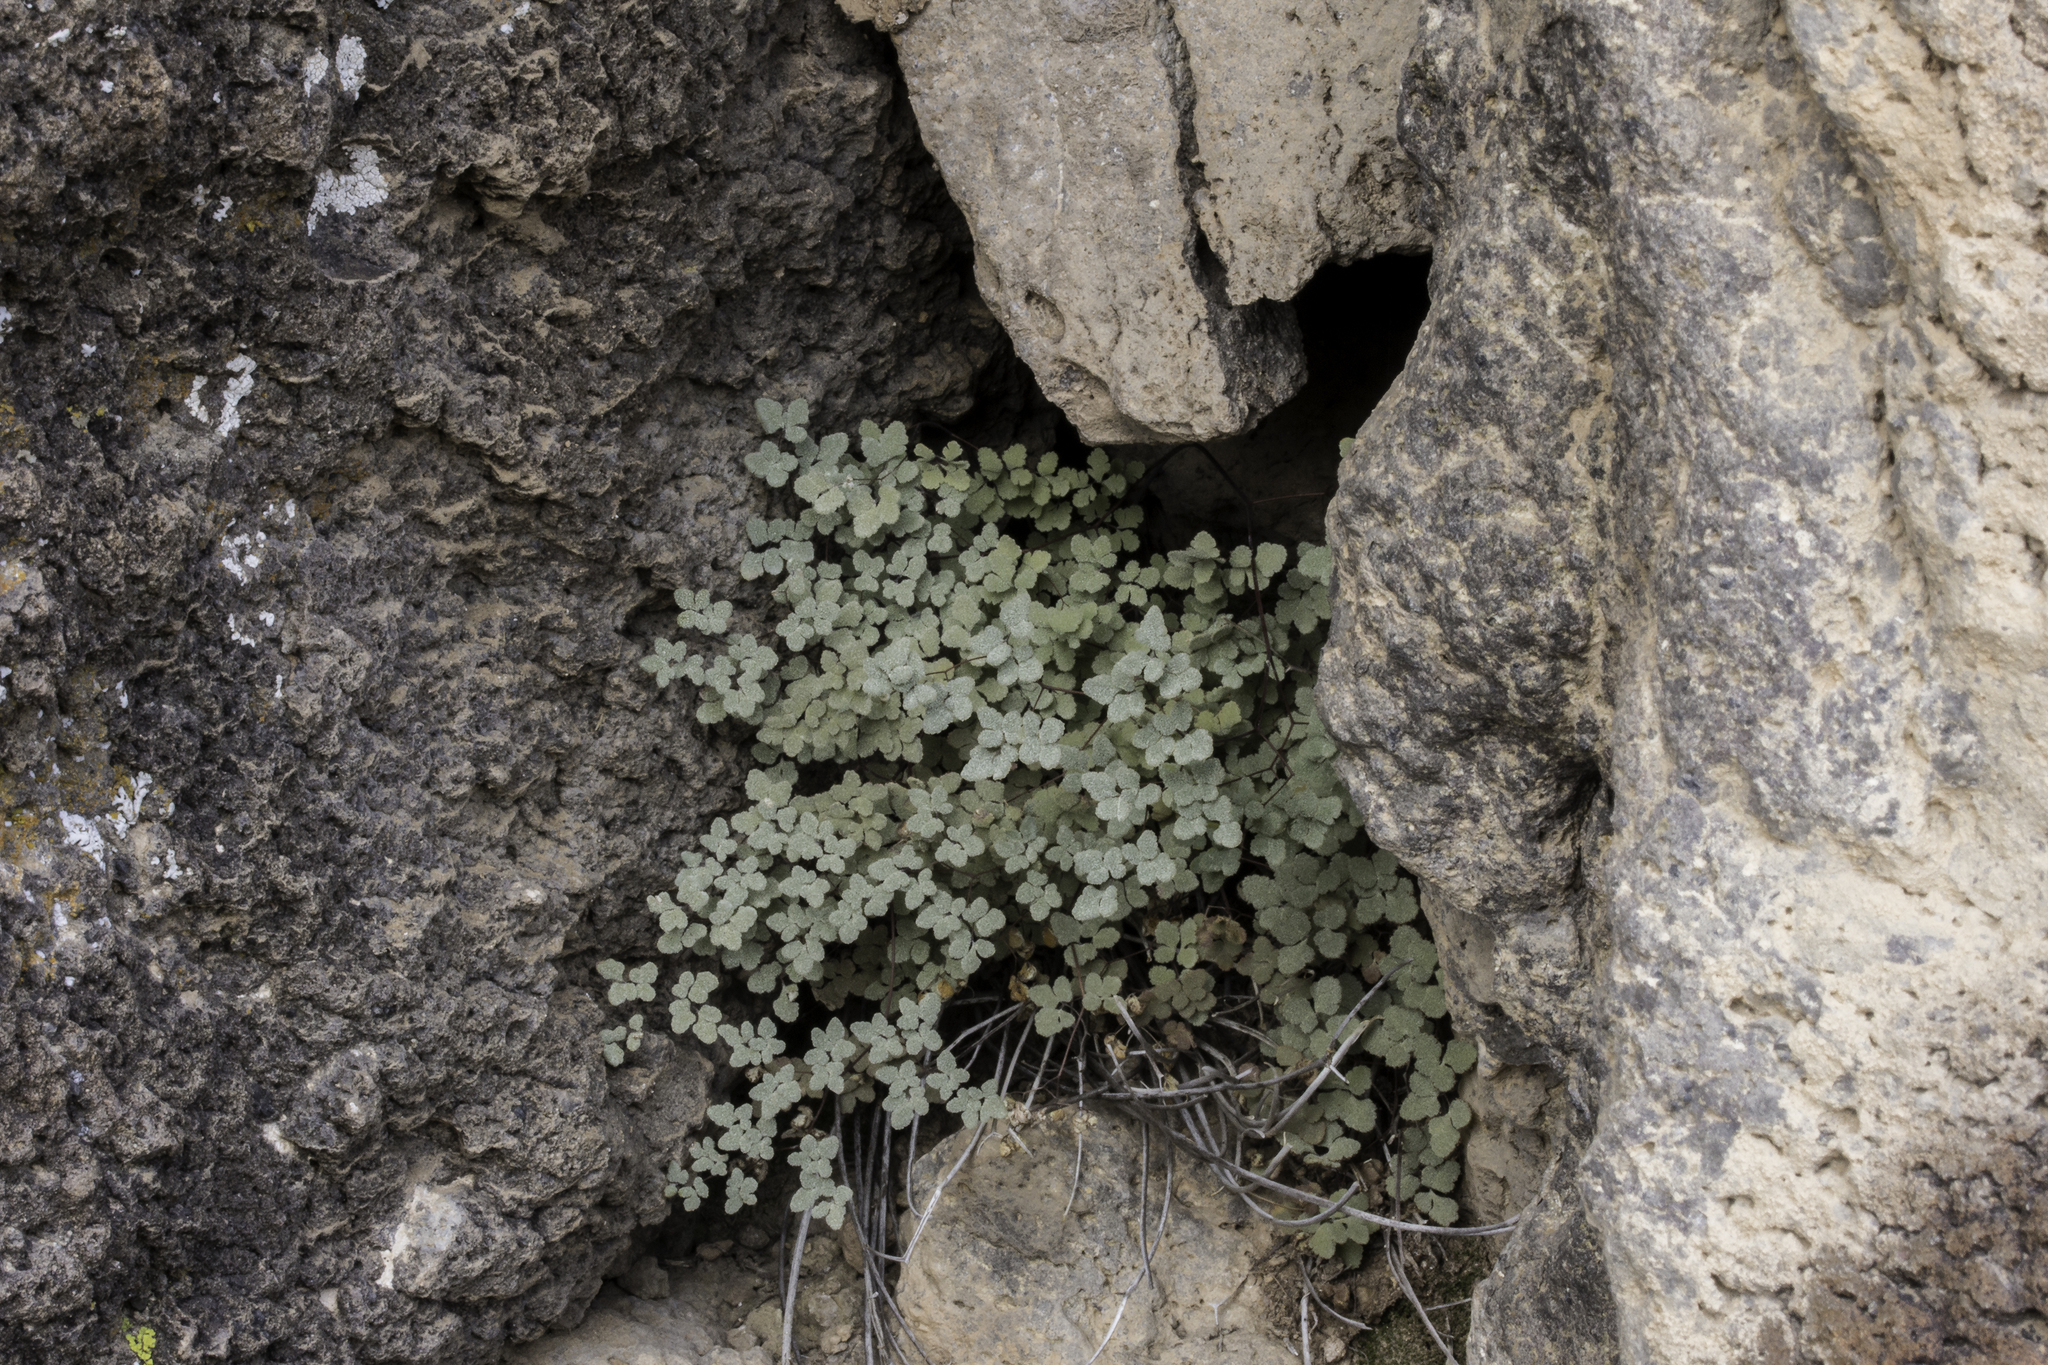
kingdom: Plantae
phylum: Tracheophyta
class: Polypodiopsida
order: Polypodiales
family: Pteridaceae
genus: Argyrochosma
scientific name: Argyrochosma fendleri
